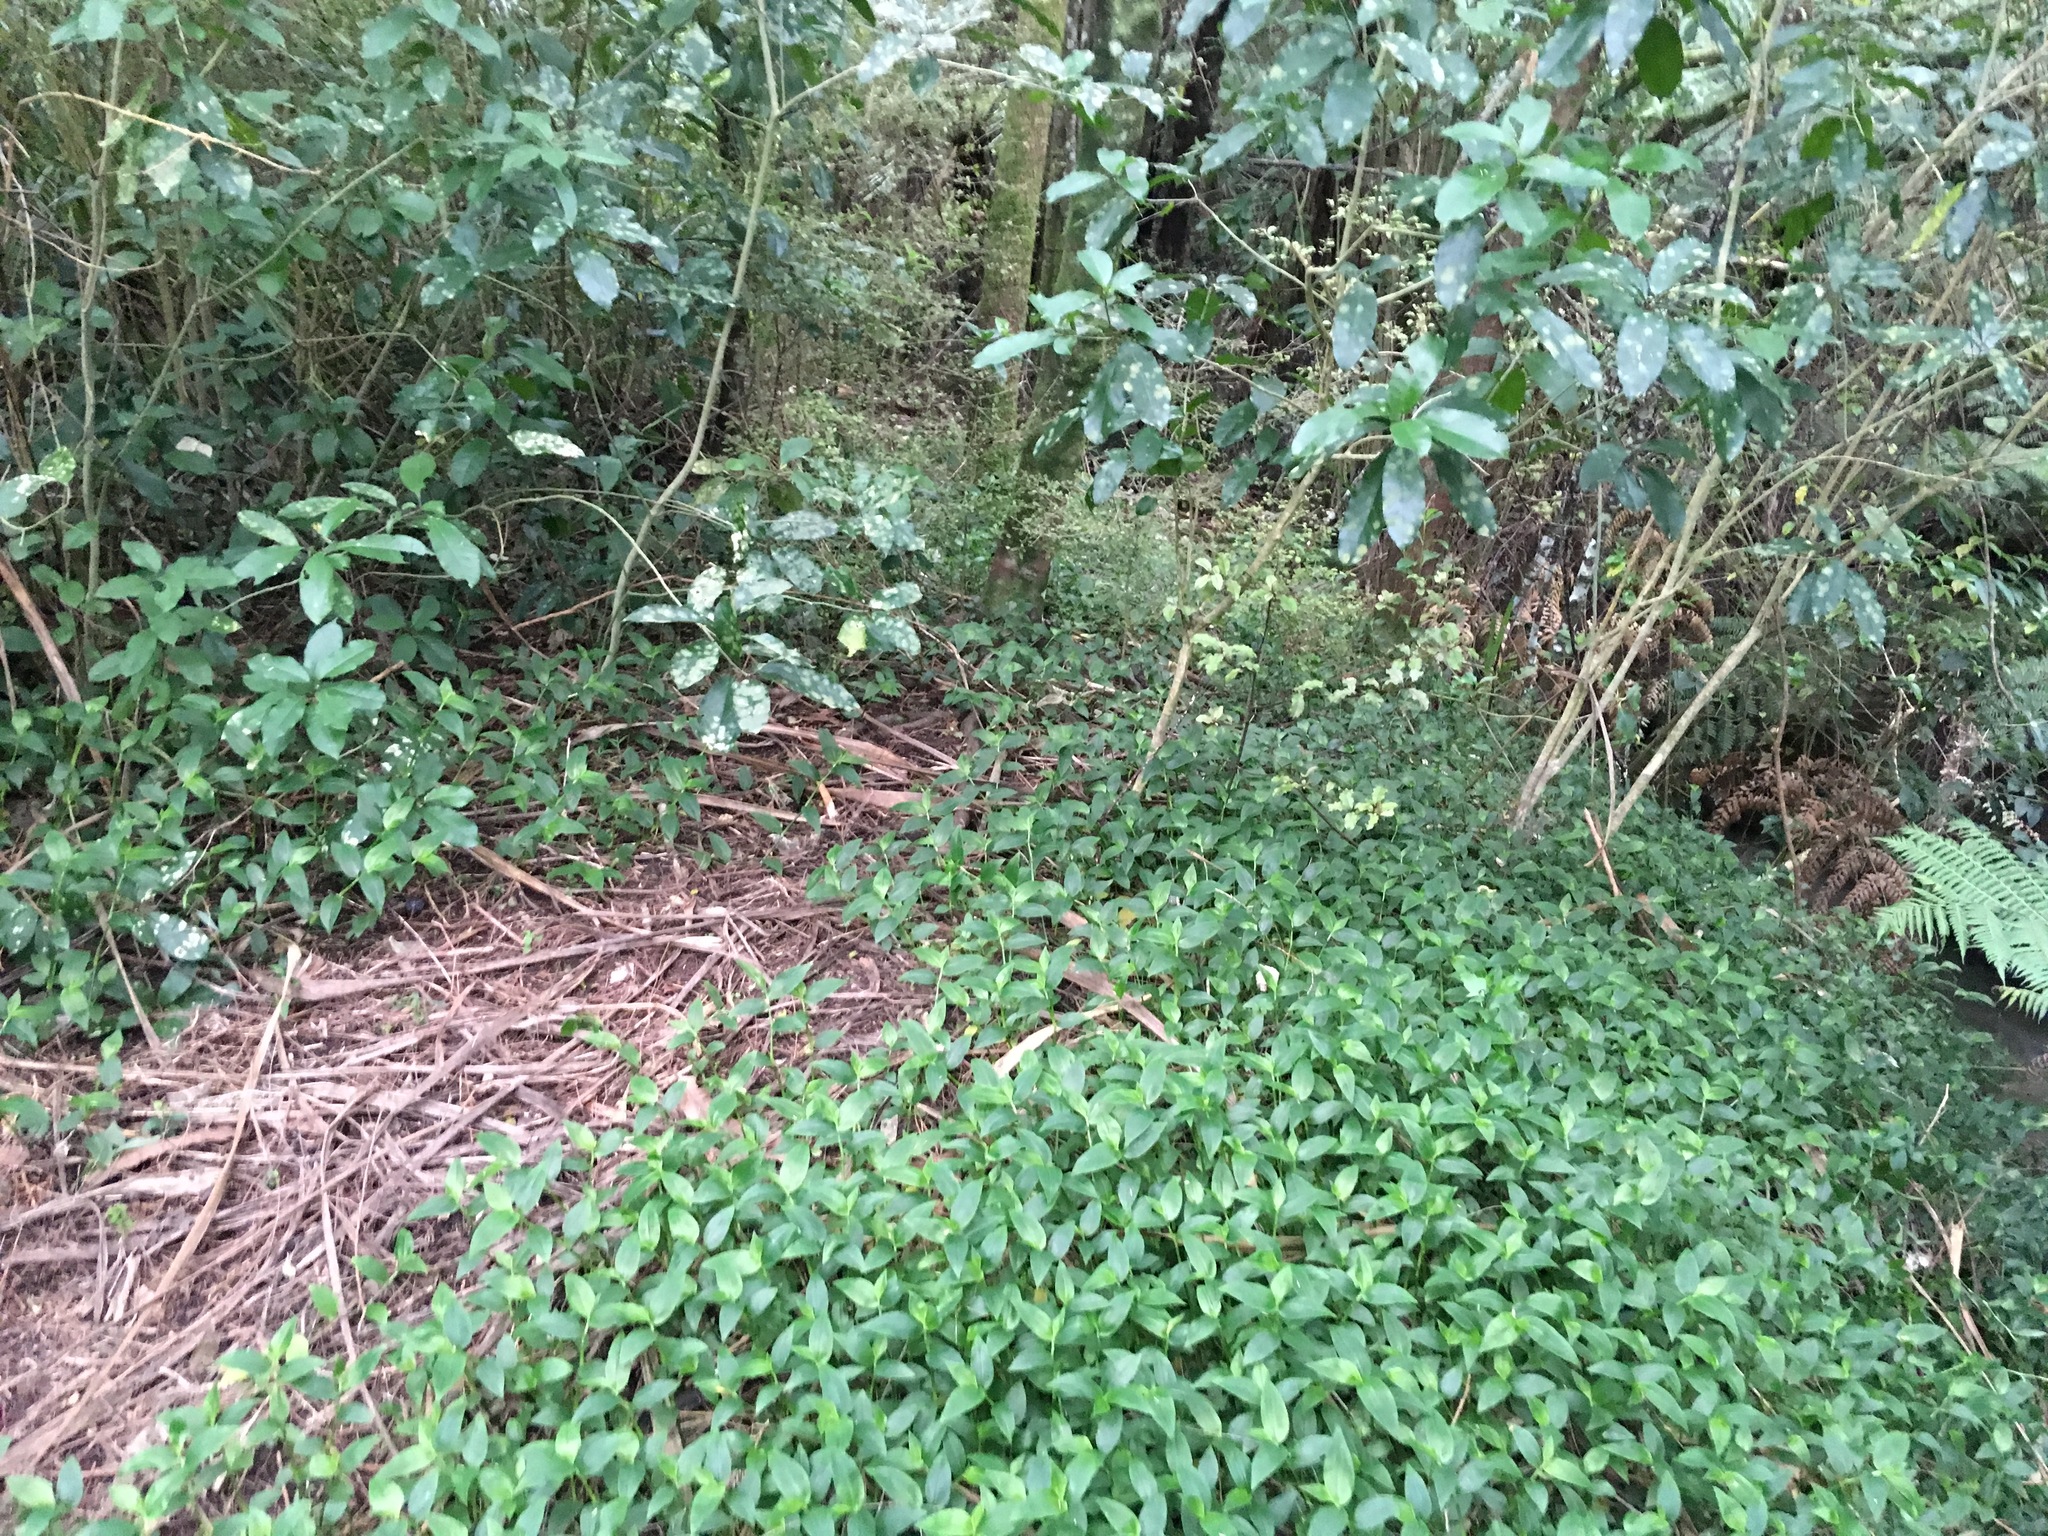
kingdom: Plantae
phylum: Tracheophyta
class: Liliopsida
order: Commelinales
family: Commelinaceae
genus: Tradescantia
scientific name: Tradescantia fluminensis
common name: Wandering-jew
